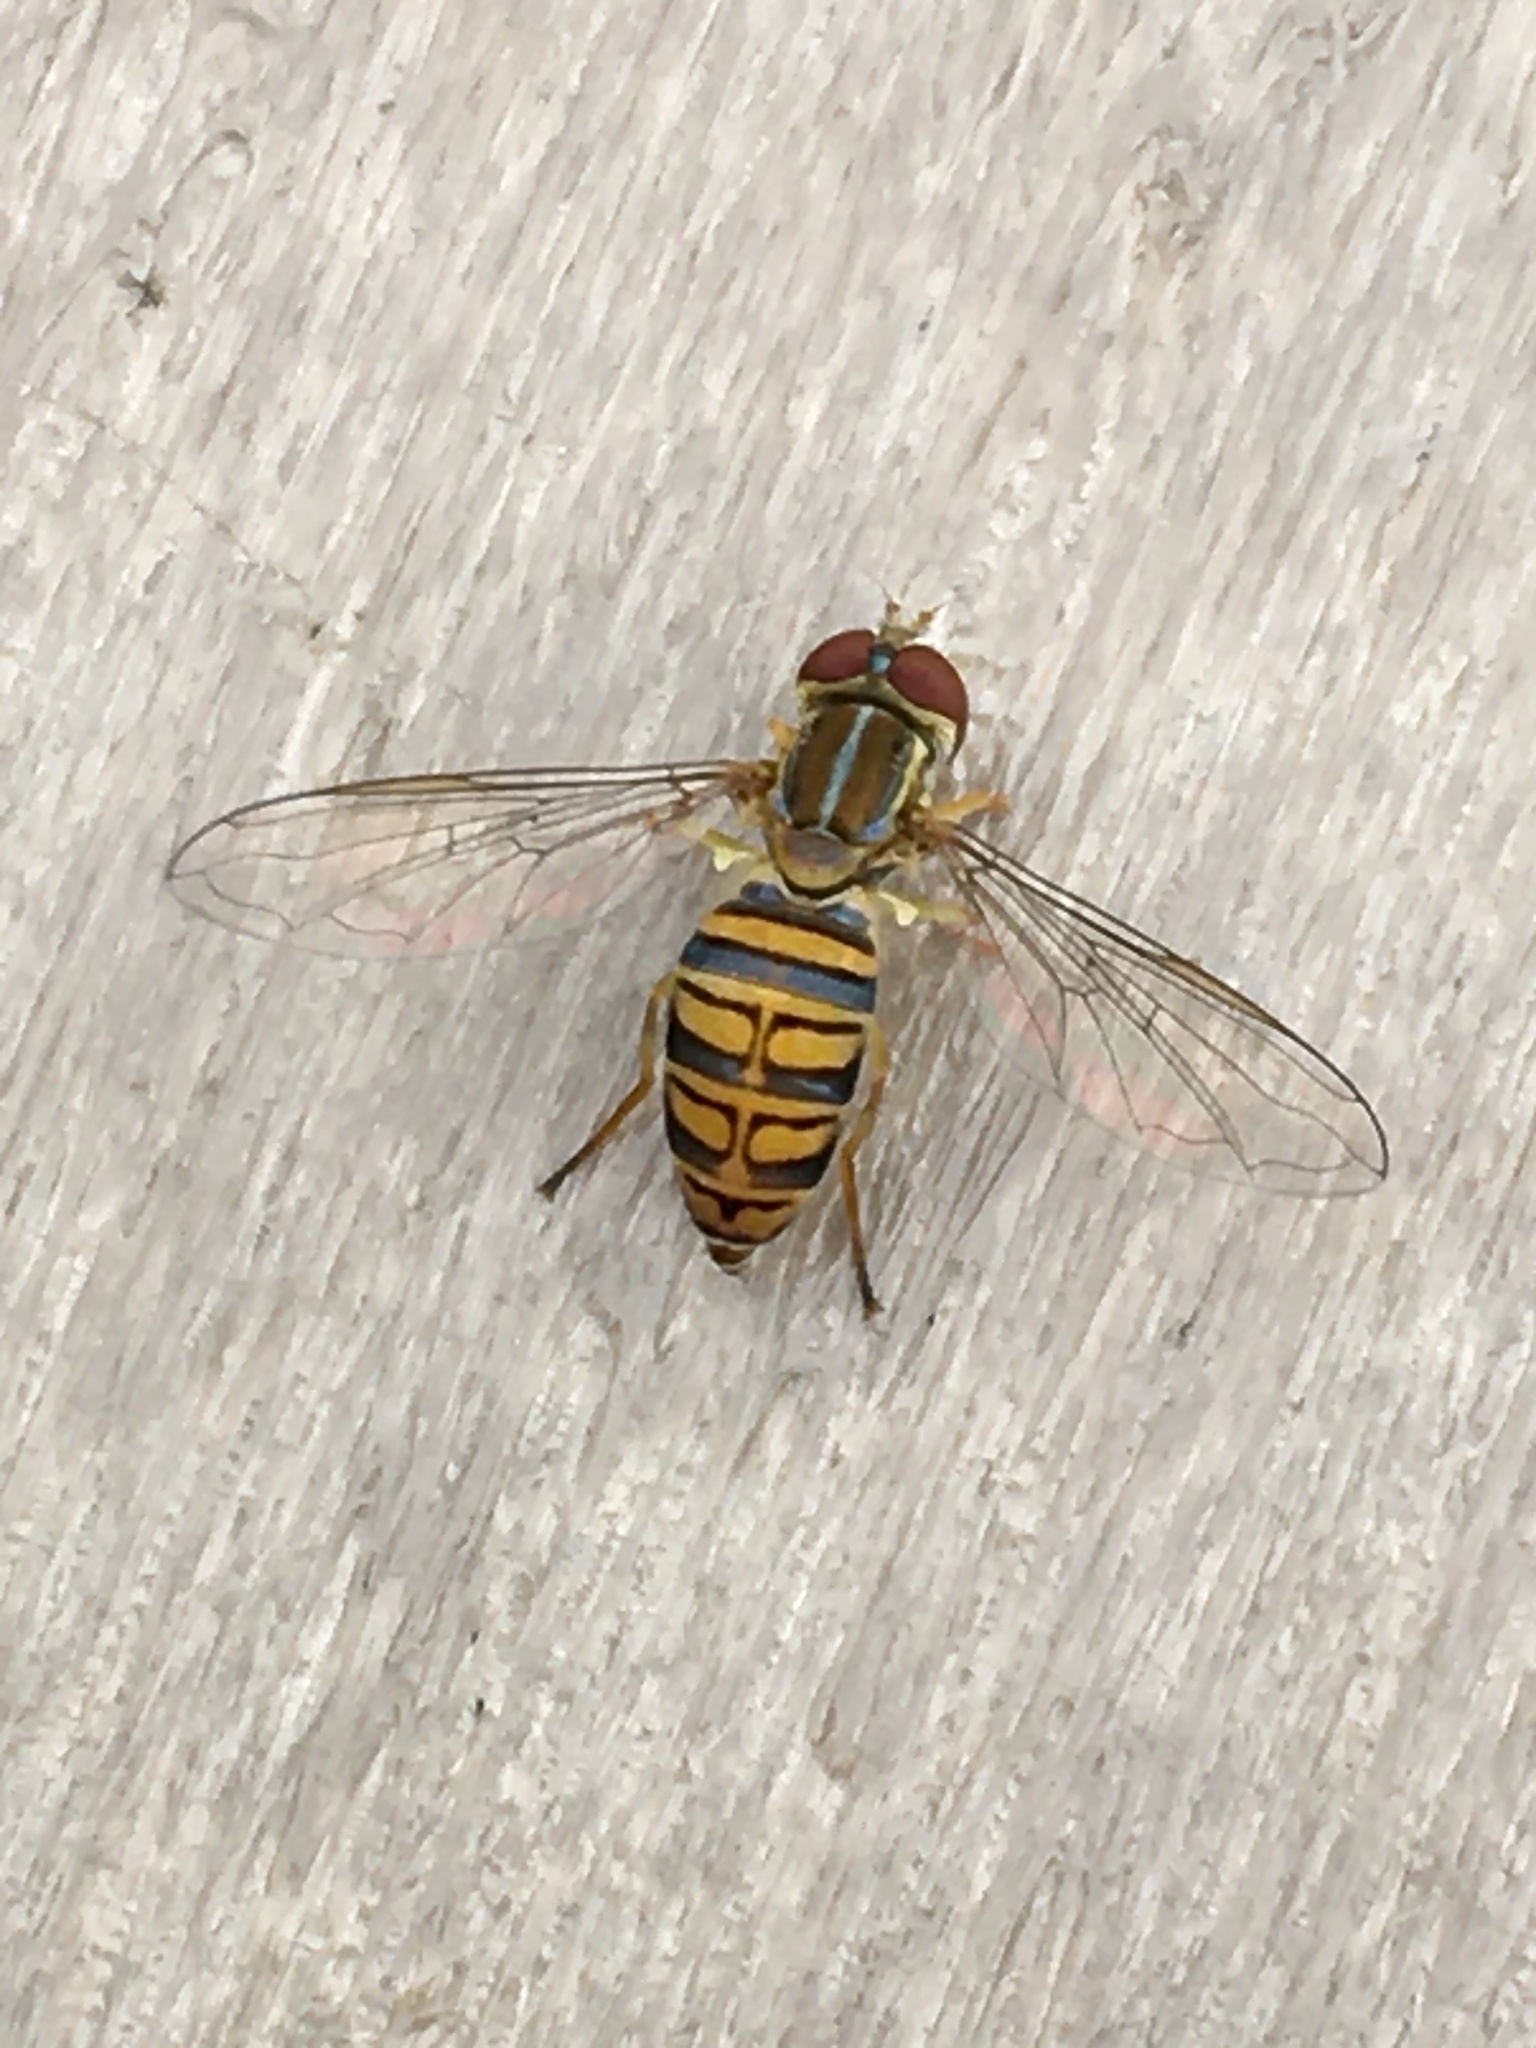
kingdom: Animalia
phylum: Arthropoda
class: Insecta
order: Diptera
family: Syrphidae
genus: Toxomerus
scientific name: Toxomerus politus
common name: Maize calligrapher
